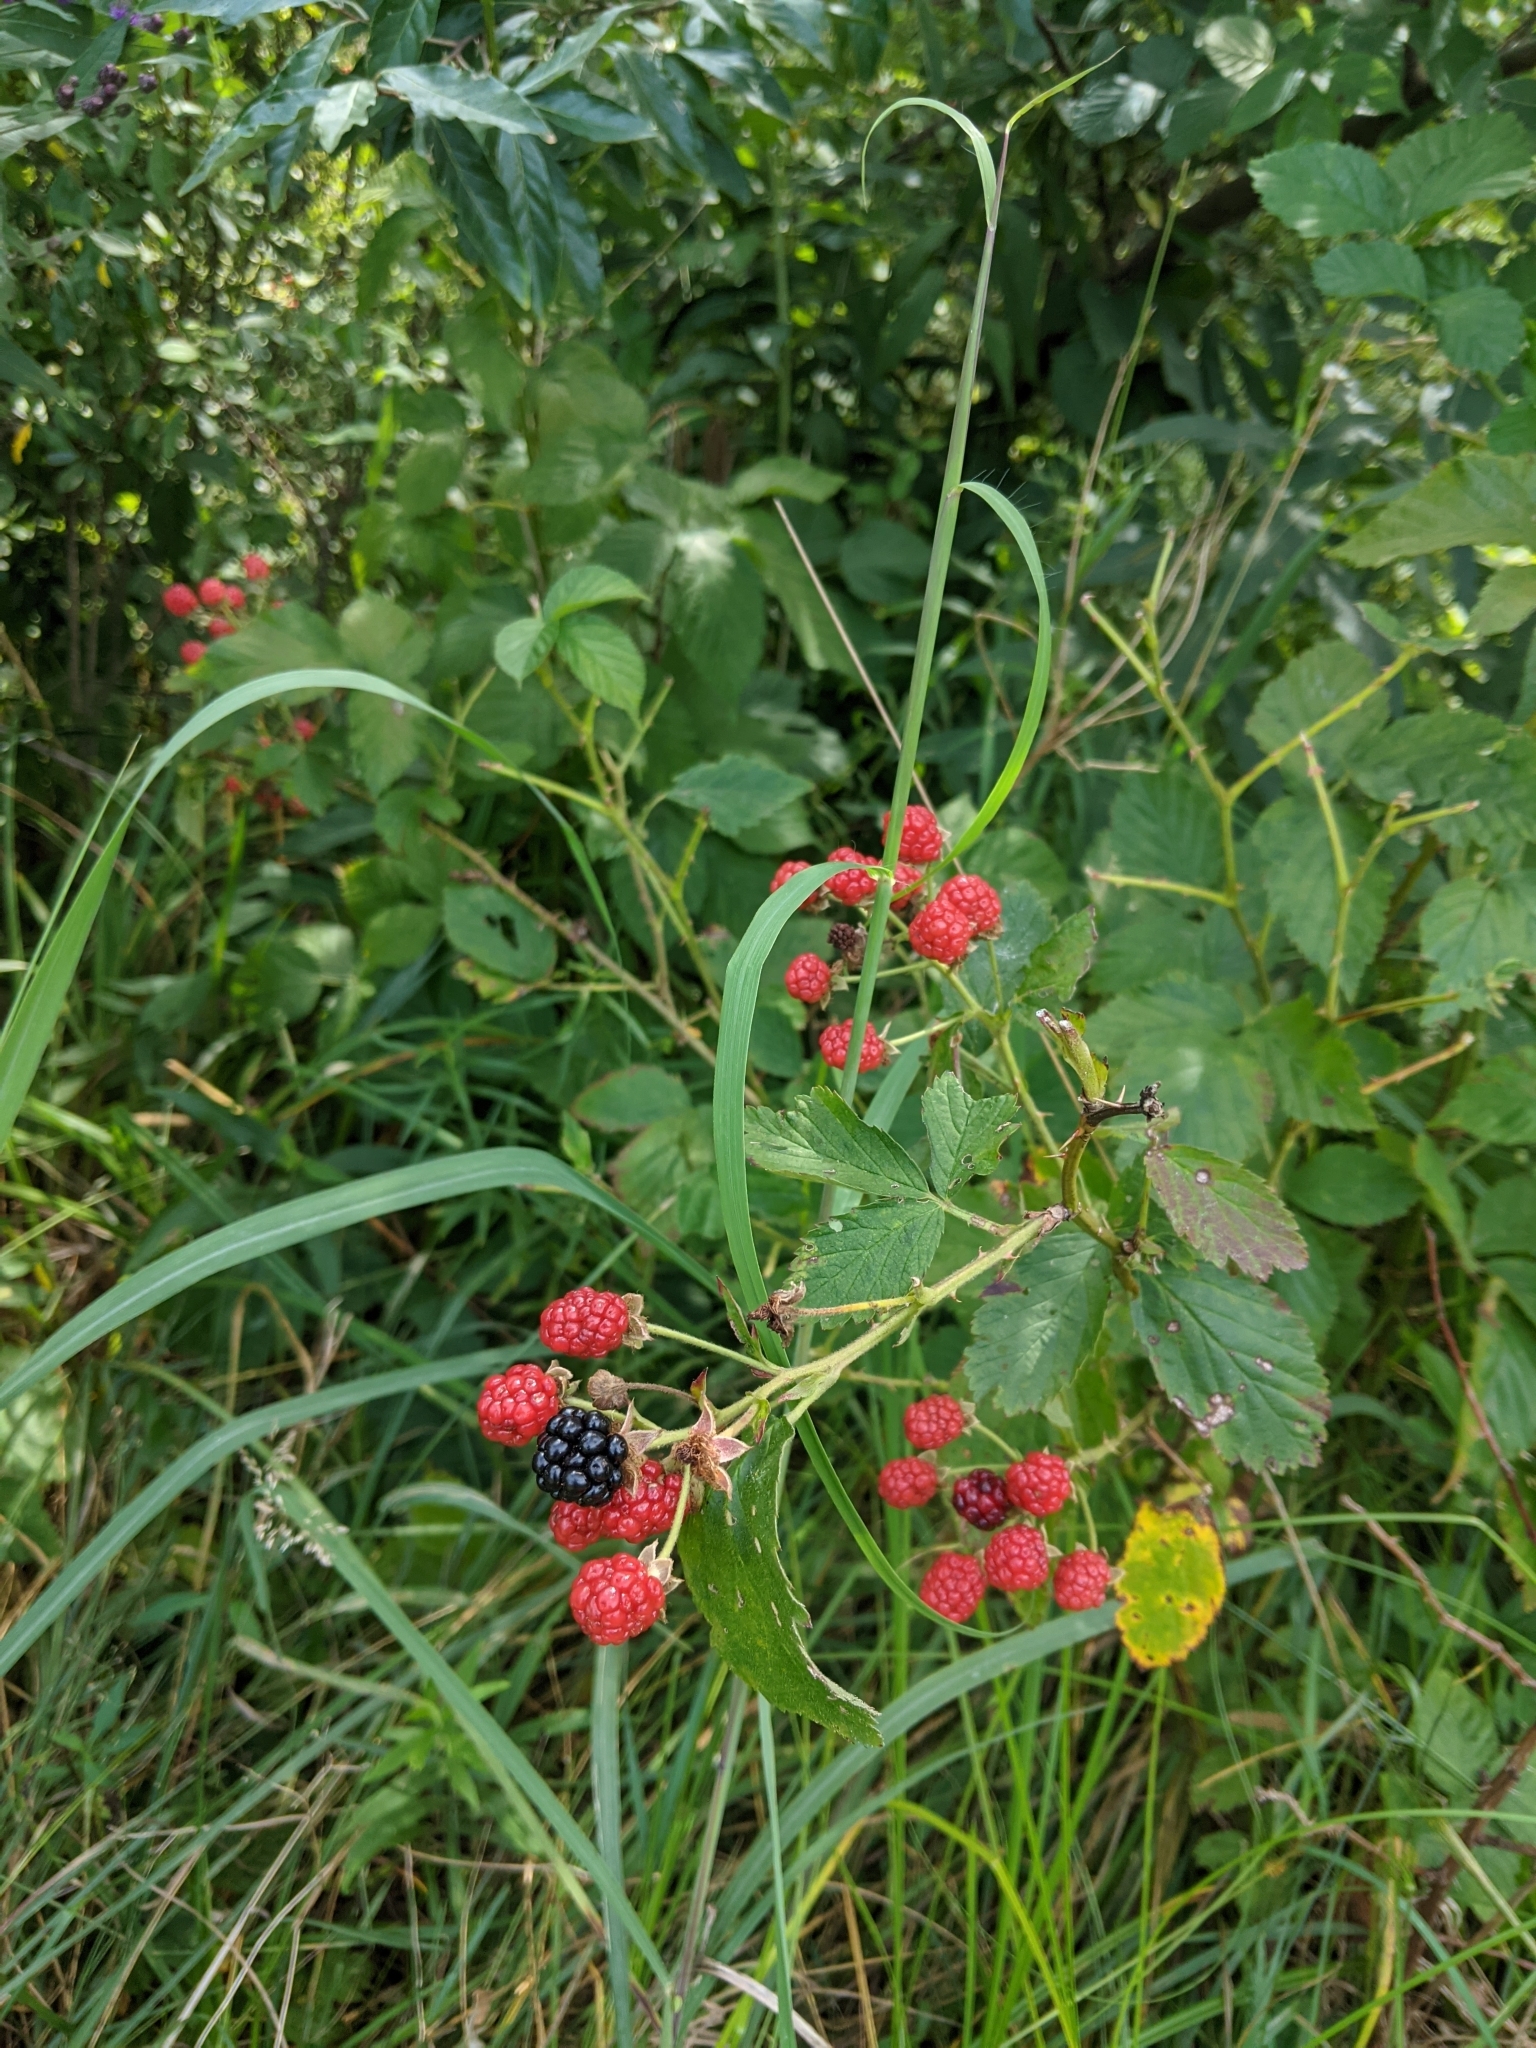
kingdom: Plantae
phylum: Tracheophyta
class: Magnoliopsida
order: Rosales
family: Rosaceae
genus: Rubus
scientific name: Rubus allegheniensis
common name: Allegheny blackberry
